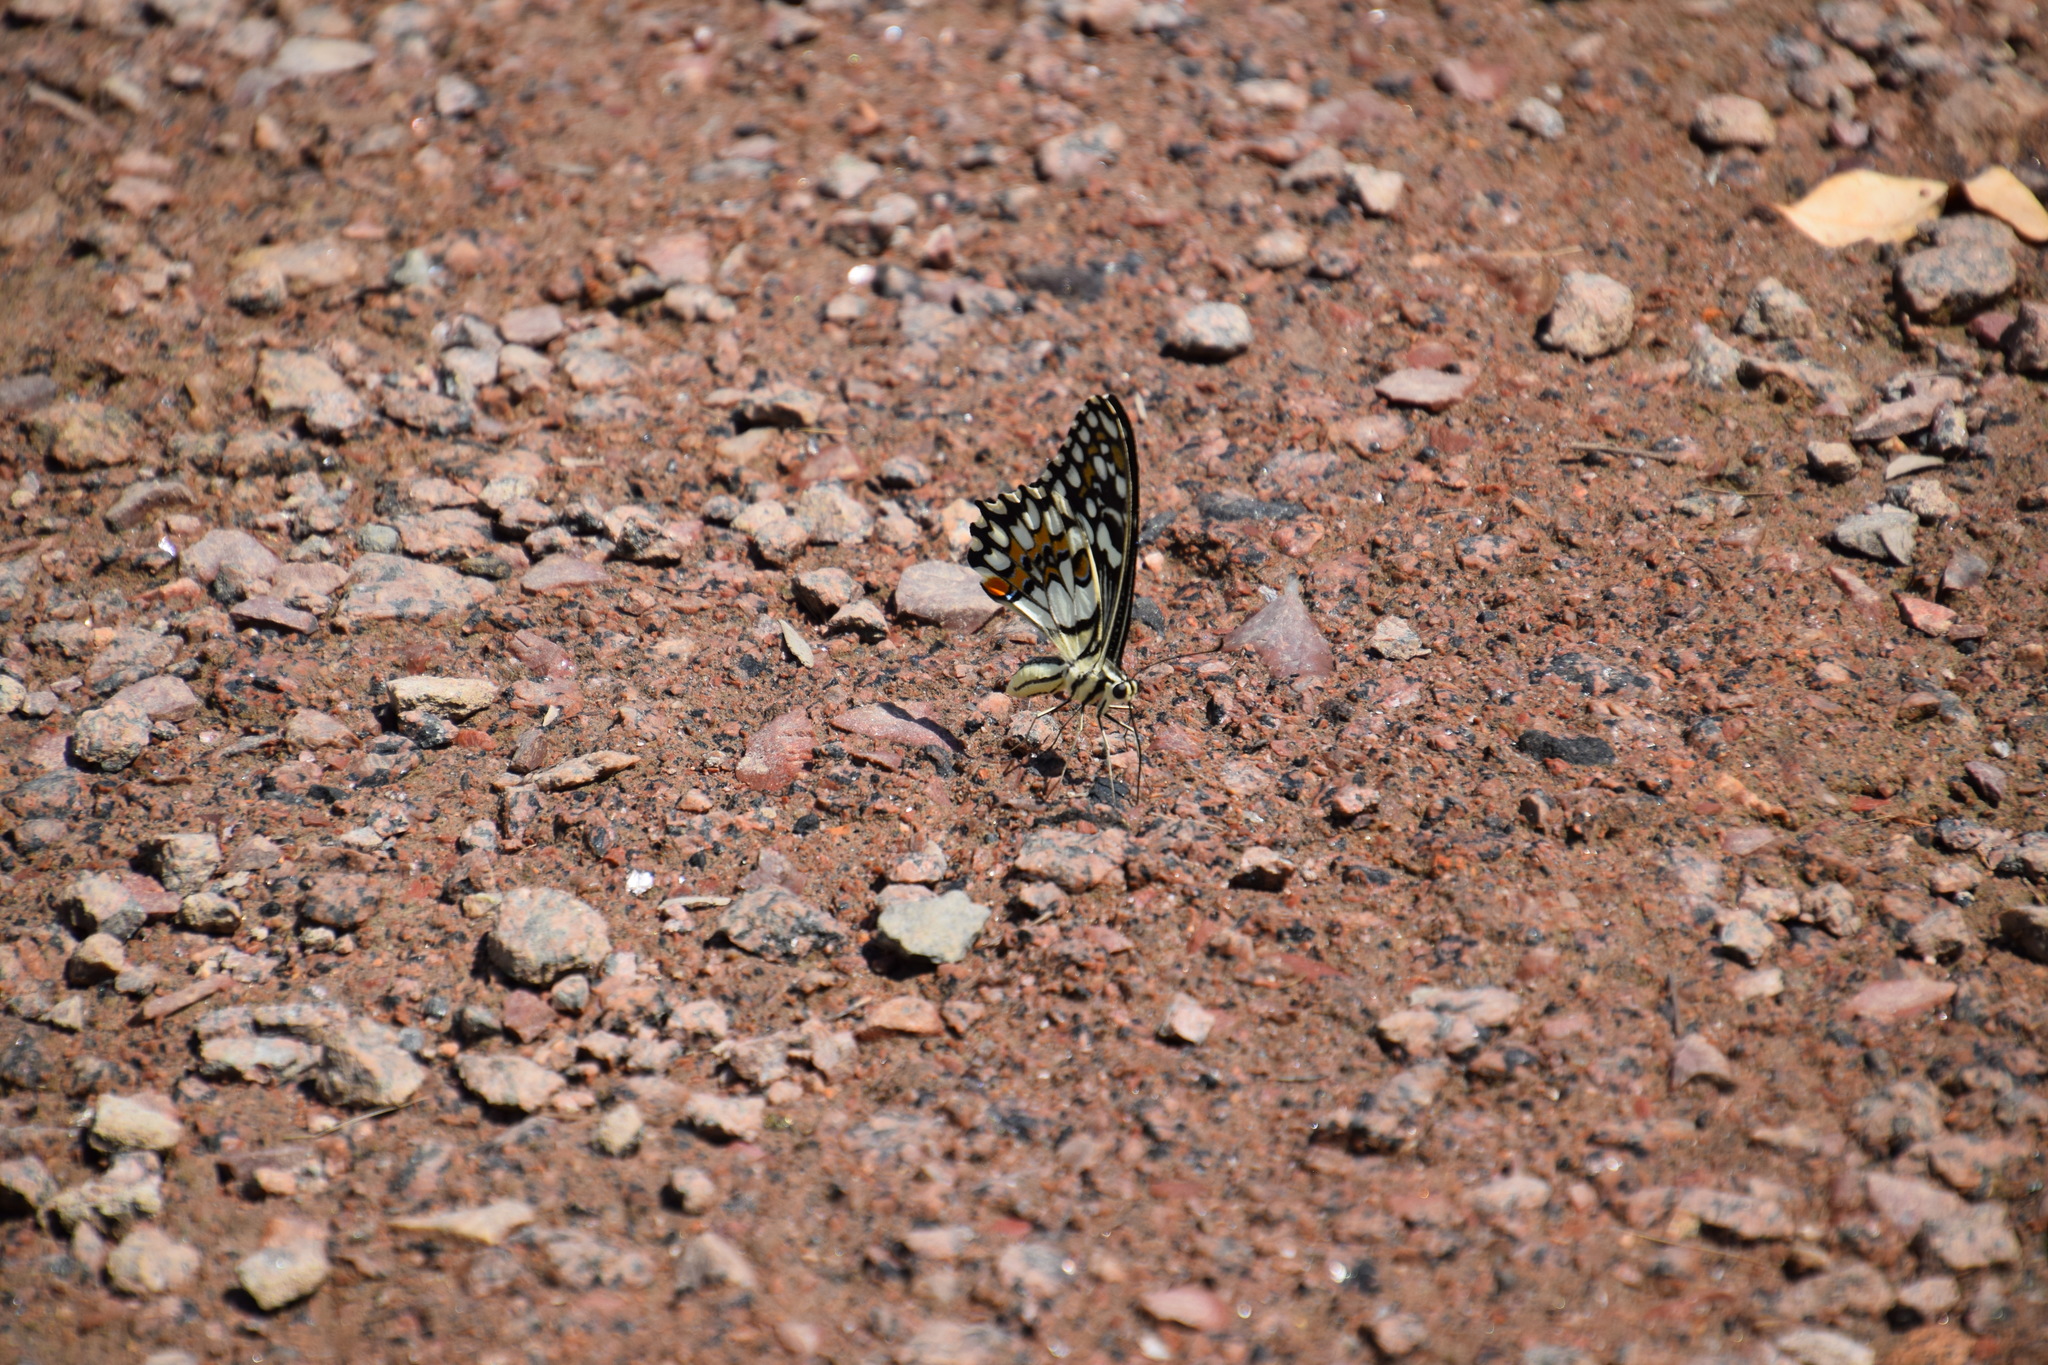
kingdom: Animalia
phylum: Arthropoda
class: Insecta
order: Lepidoptera
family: Papilionidae
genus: Papilio
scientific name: Papilio demoleus
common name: Lime butterfly
